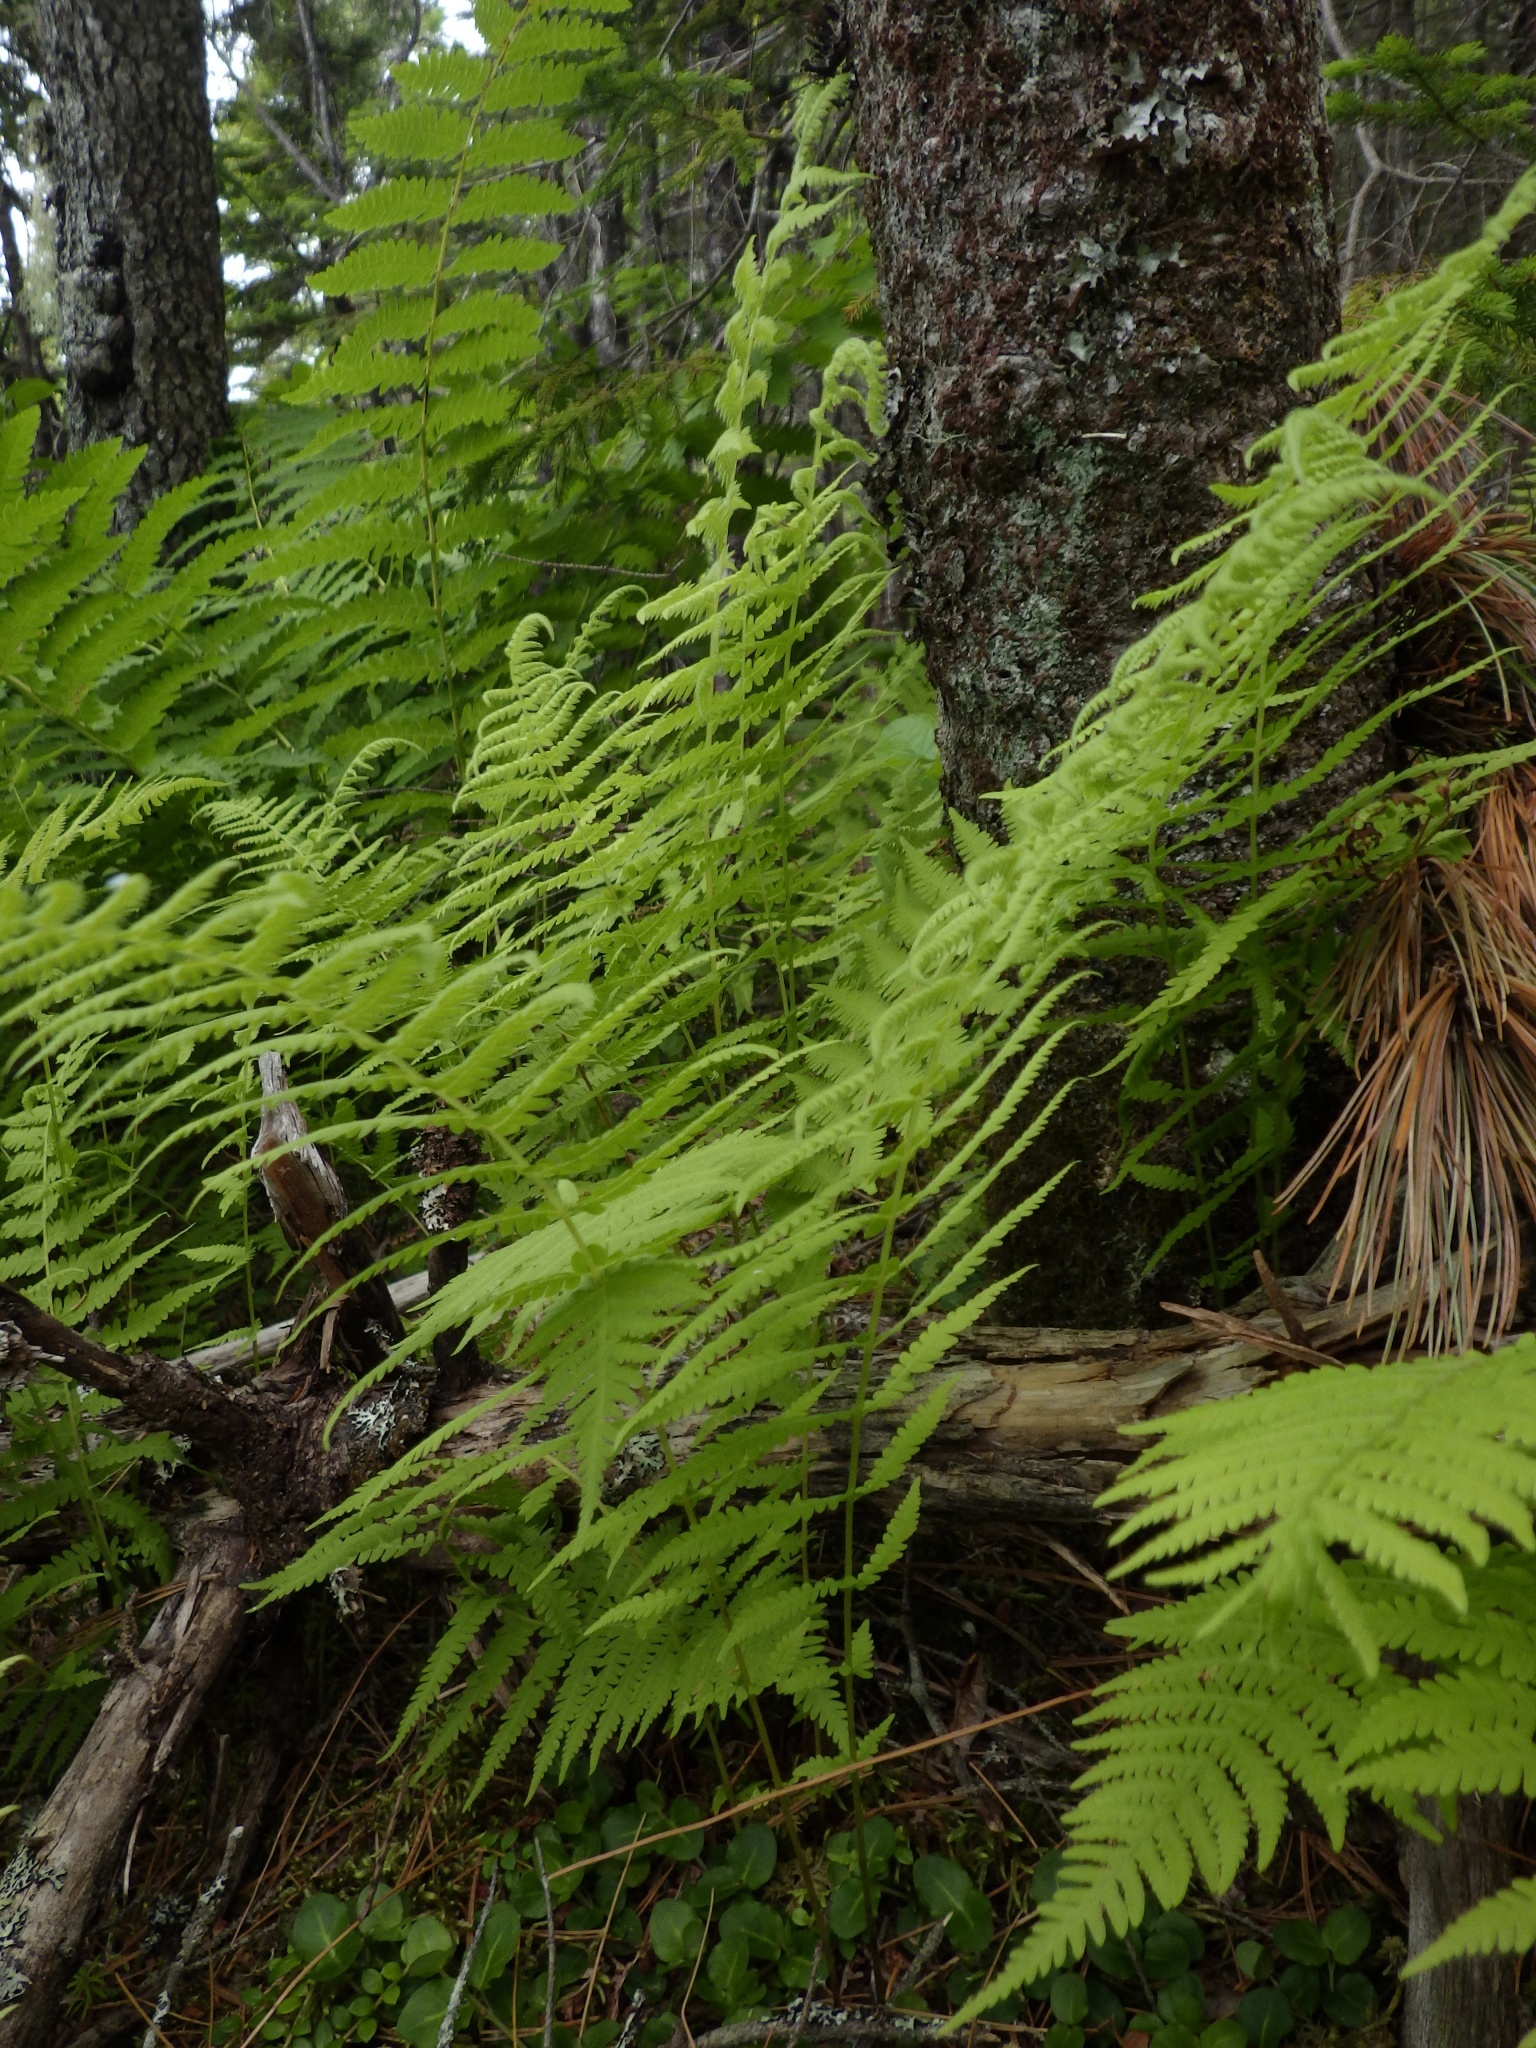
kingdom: Plantae
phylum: Tracheophyta
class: Polypodiopsida
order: Polypodiales
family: Thelypteridaceae
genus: Amauropelta
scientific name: Amauropelta noveboracensis
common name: New york fern
